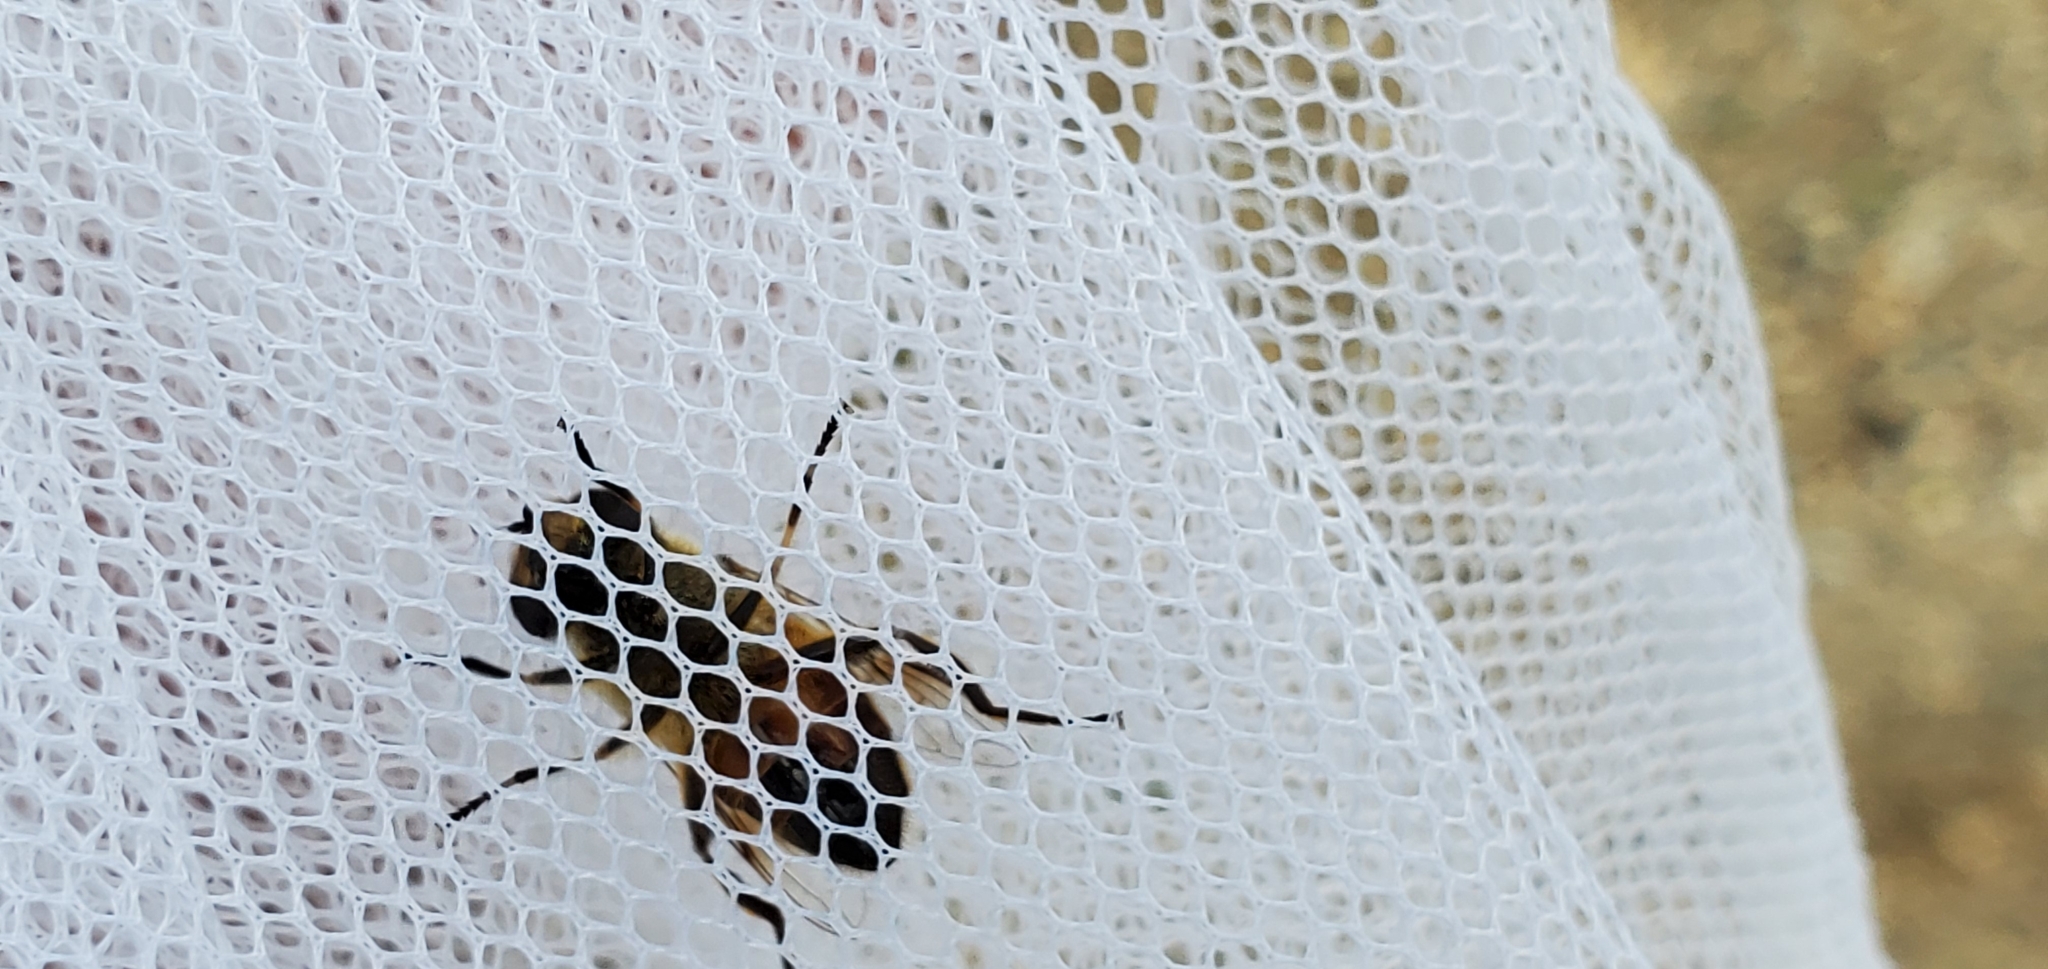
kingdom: Animalia
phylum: Arthropoda
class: Insecta
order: Diptera
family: Syrphidae
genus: Eristalis
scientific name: Eristalis tenax
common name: Drone fly
